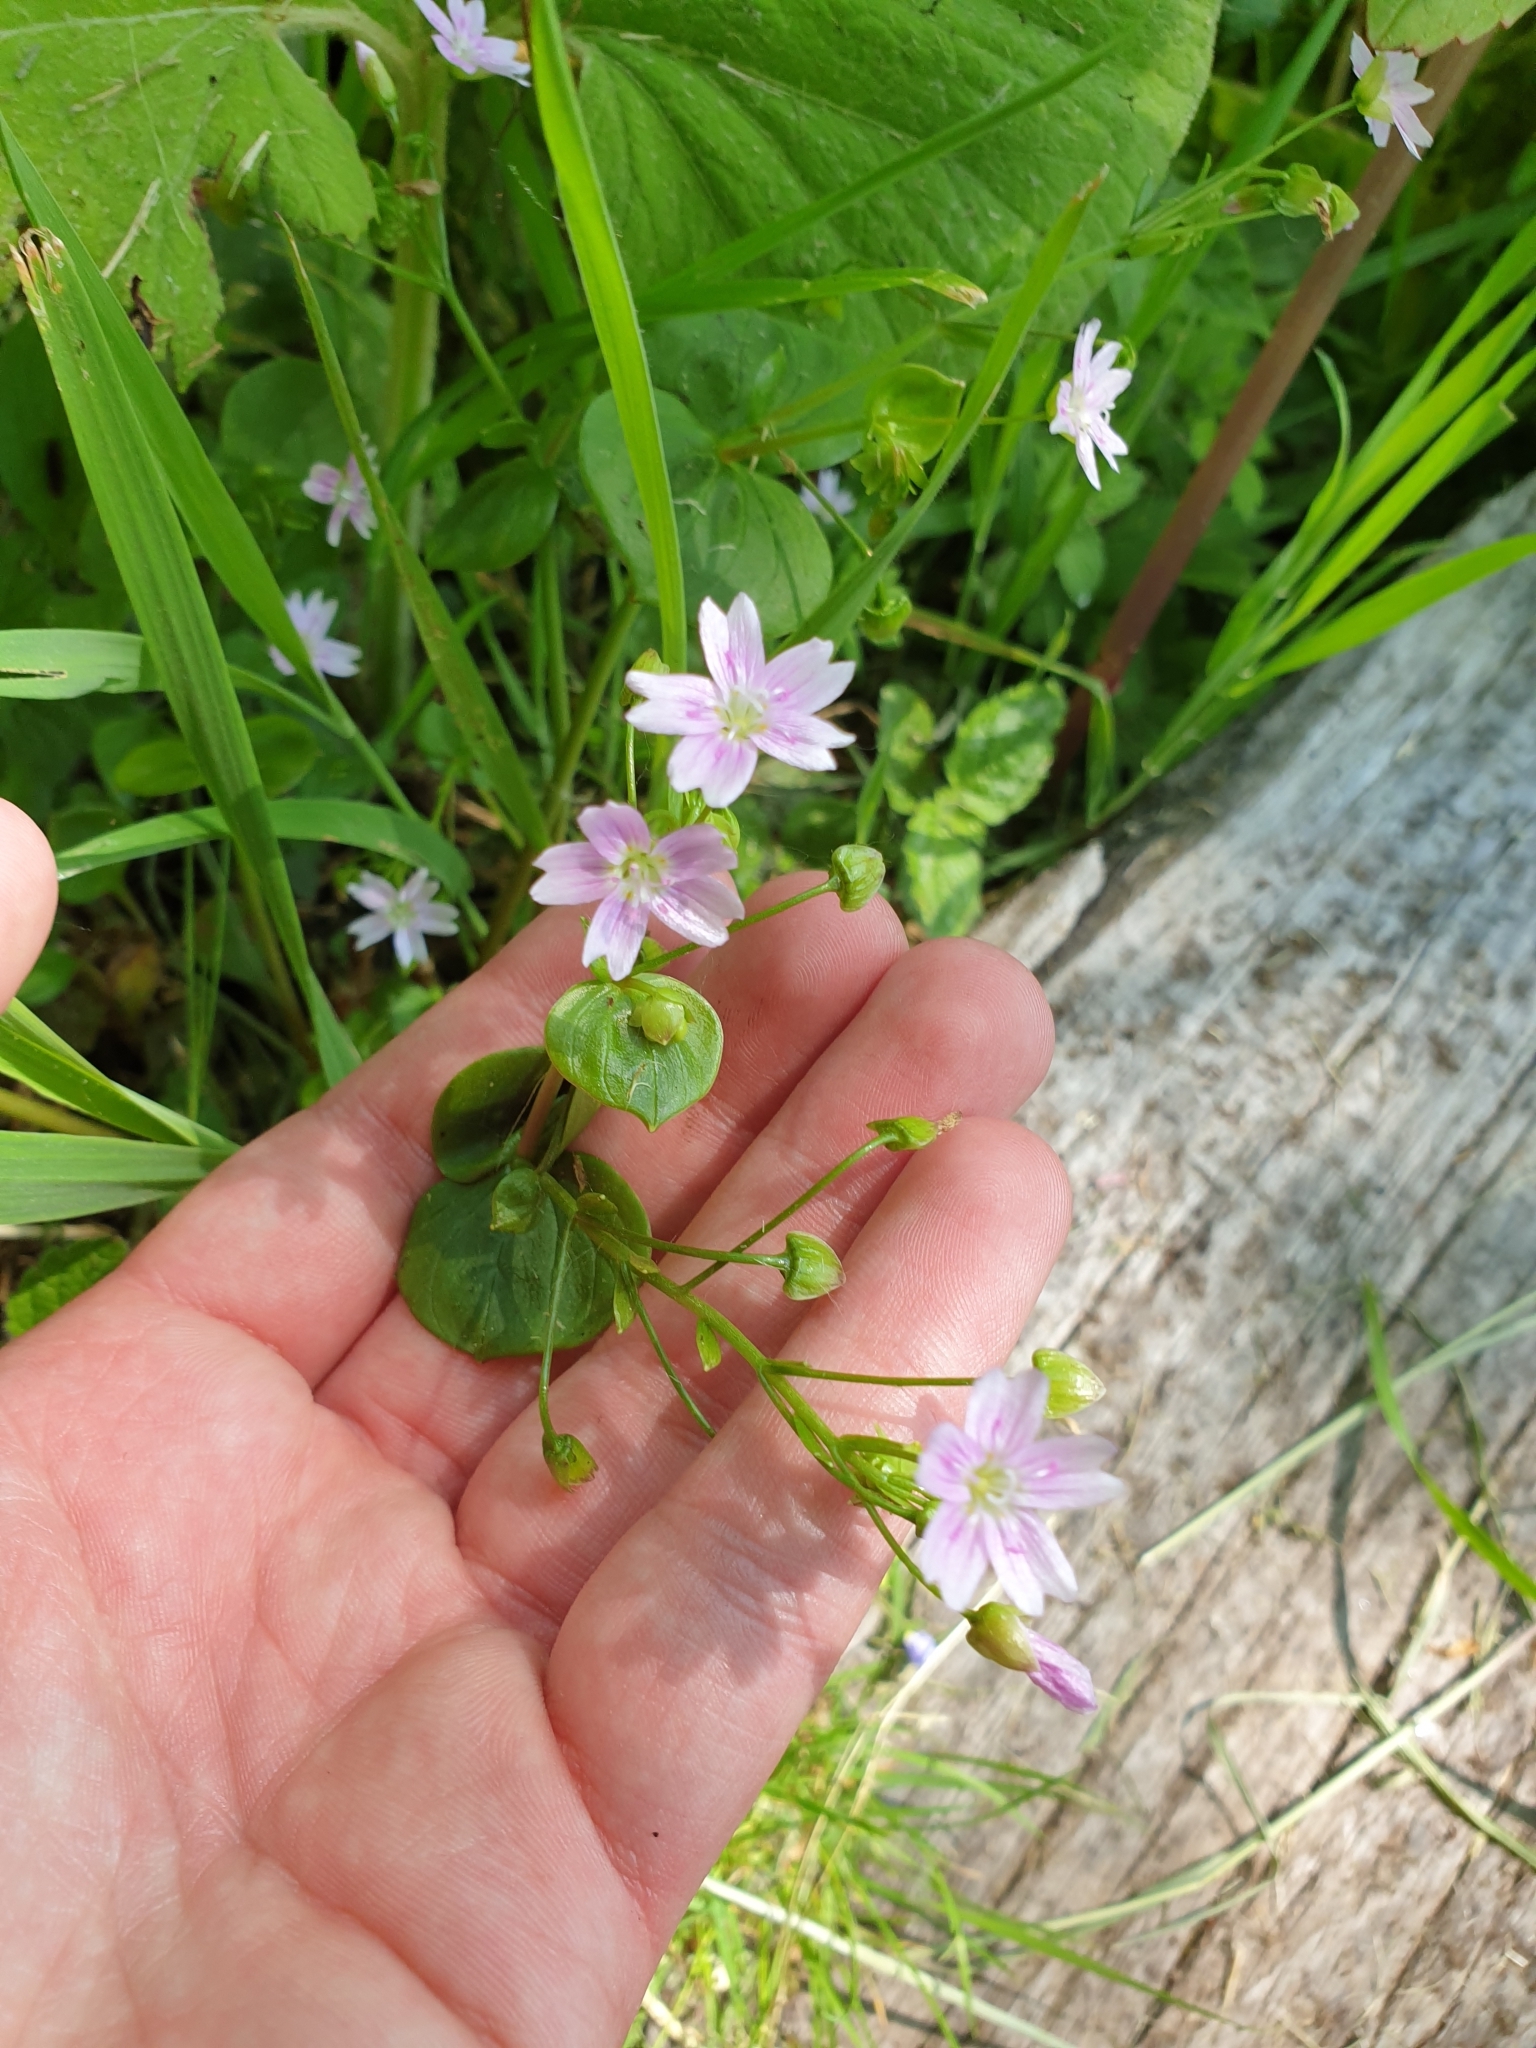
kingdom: Plantae
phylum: Tracheophyta
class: Magnoliopsida
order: Caryophyllales
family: Montiaceae
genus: Claytonia
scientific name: Claytonia sibirica
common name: Pink purslane
